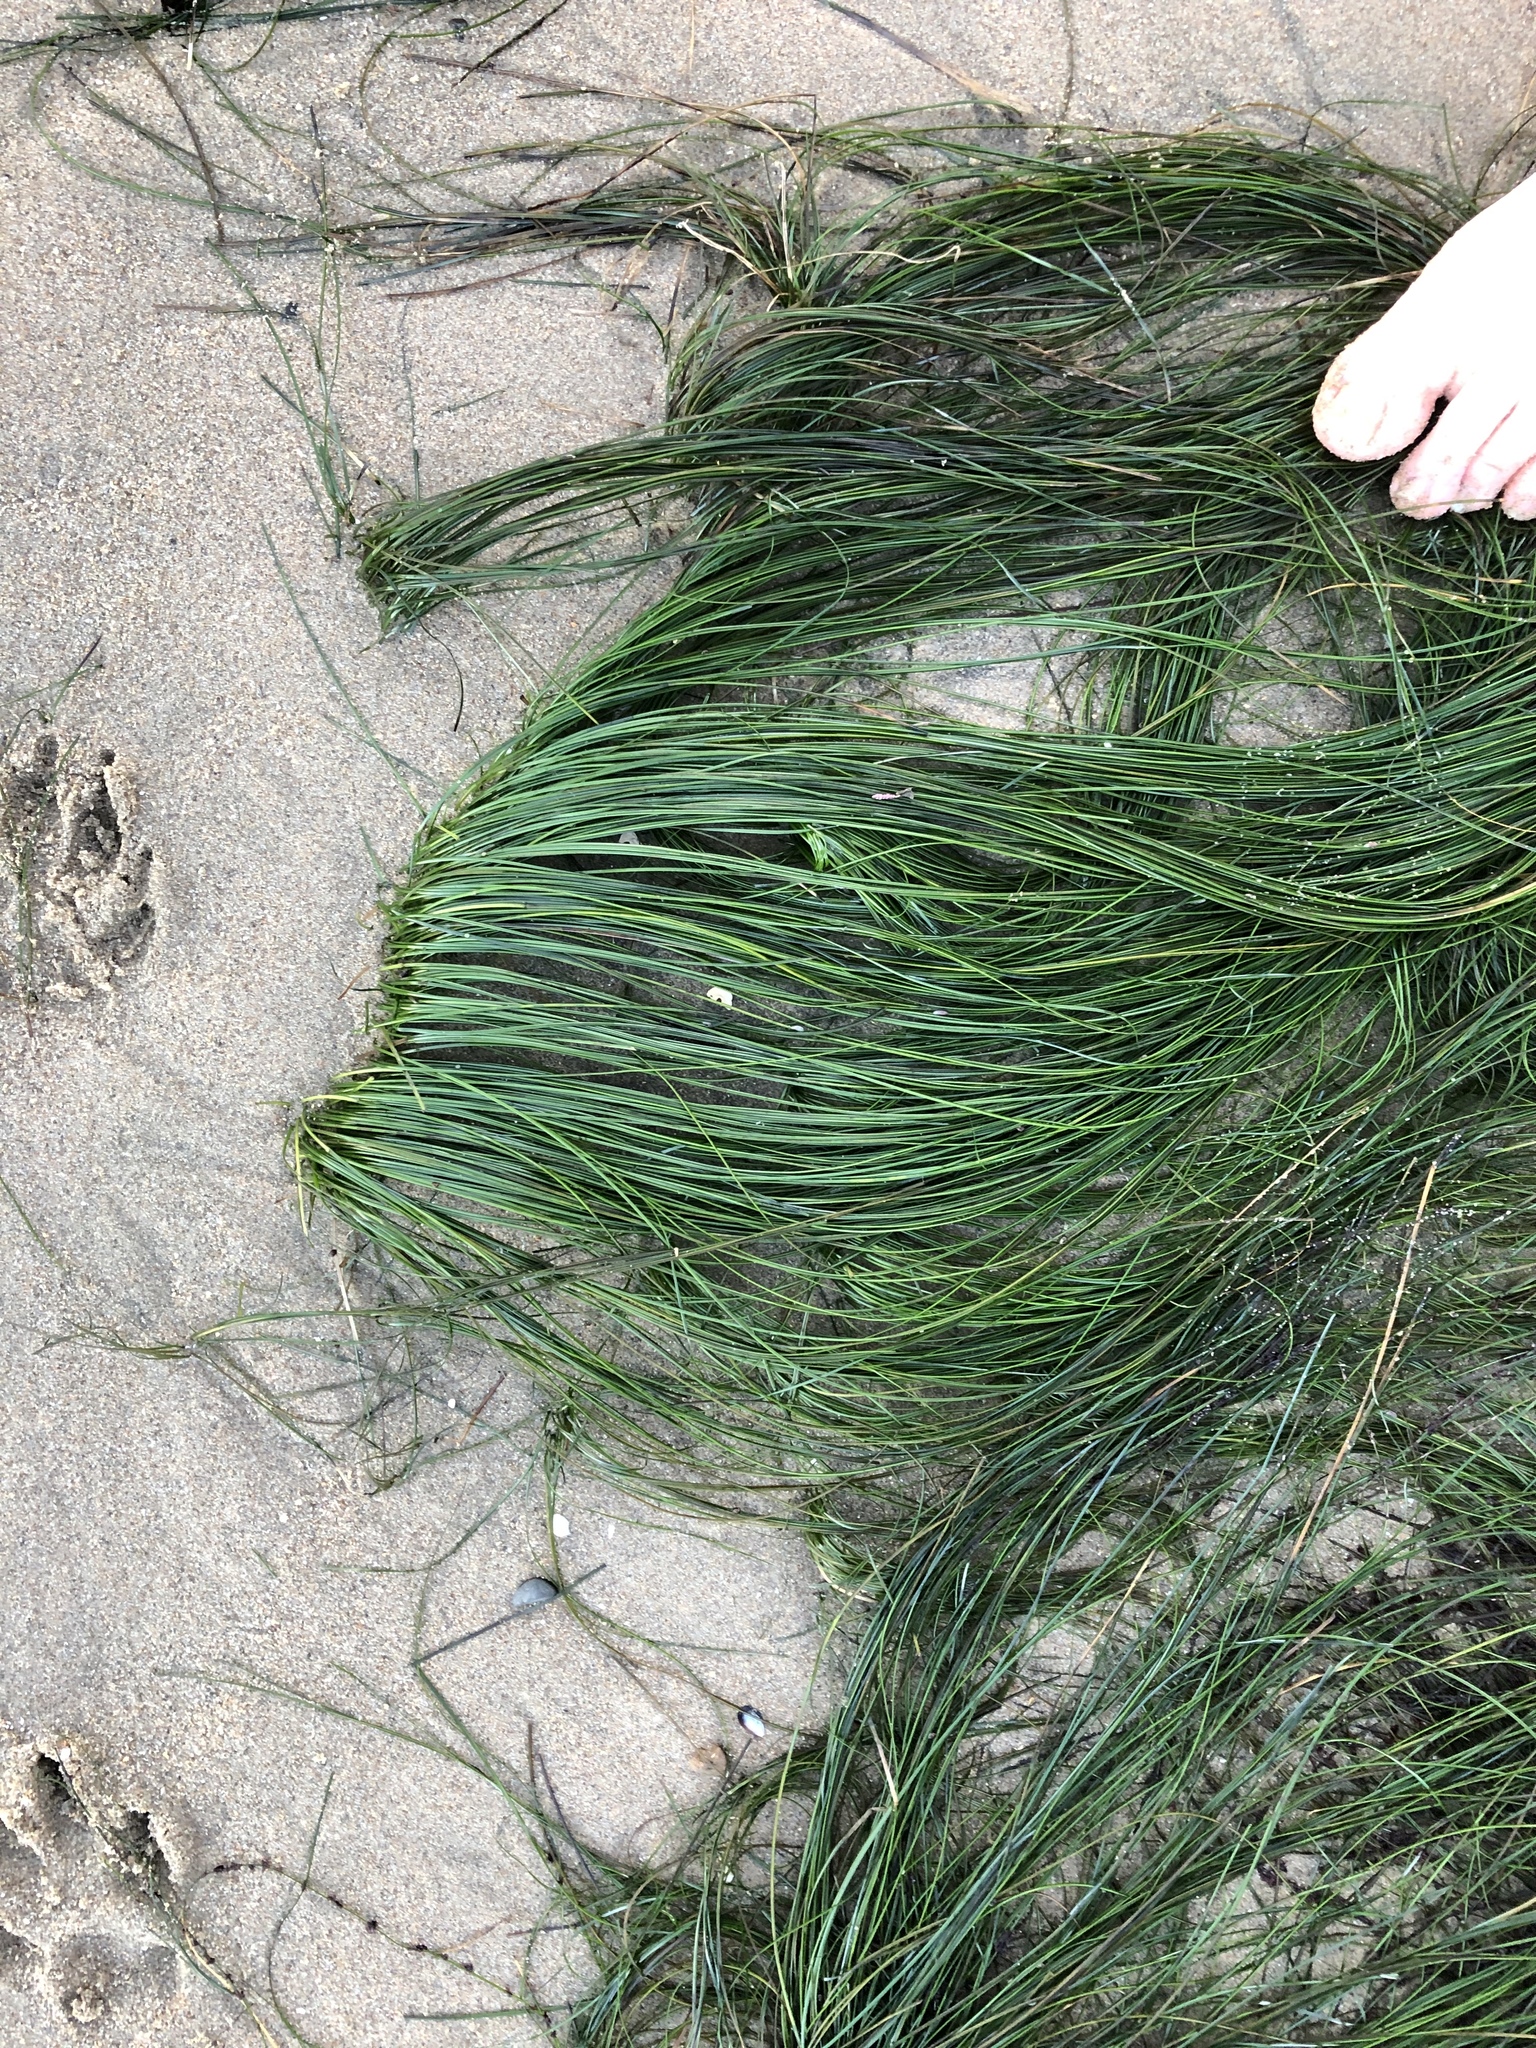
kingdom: Plantae
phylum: Tracheophyta
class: Liliopsida
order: Alismatales
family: Zosteraceae
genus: Phyllospadix
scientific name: Phyllospadix torreyi
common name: Surfgrass
